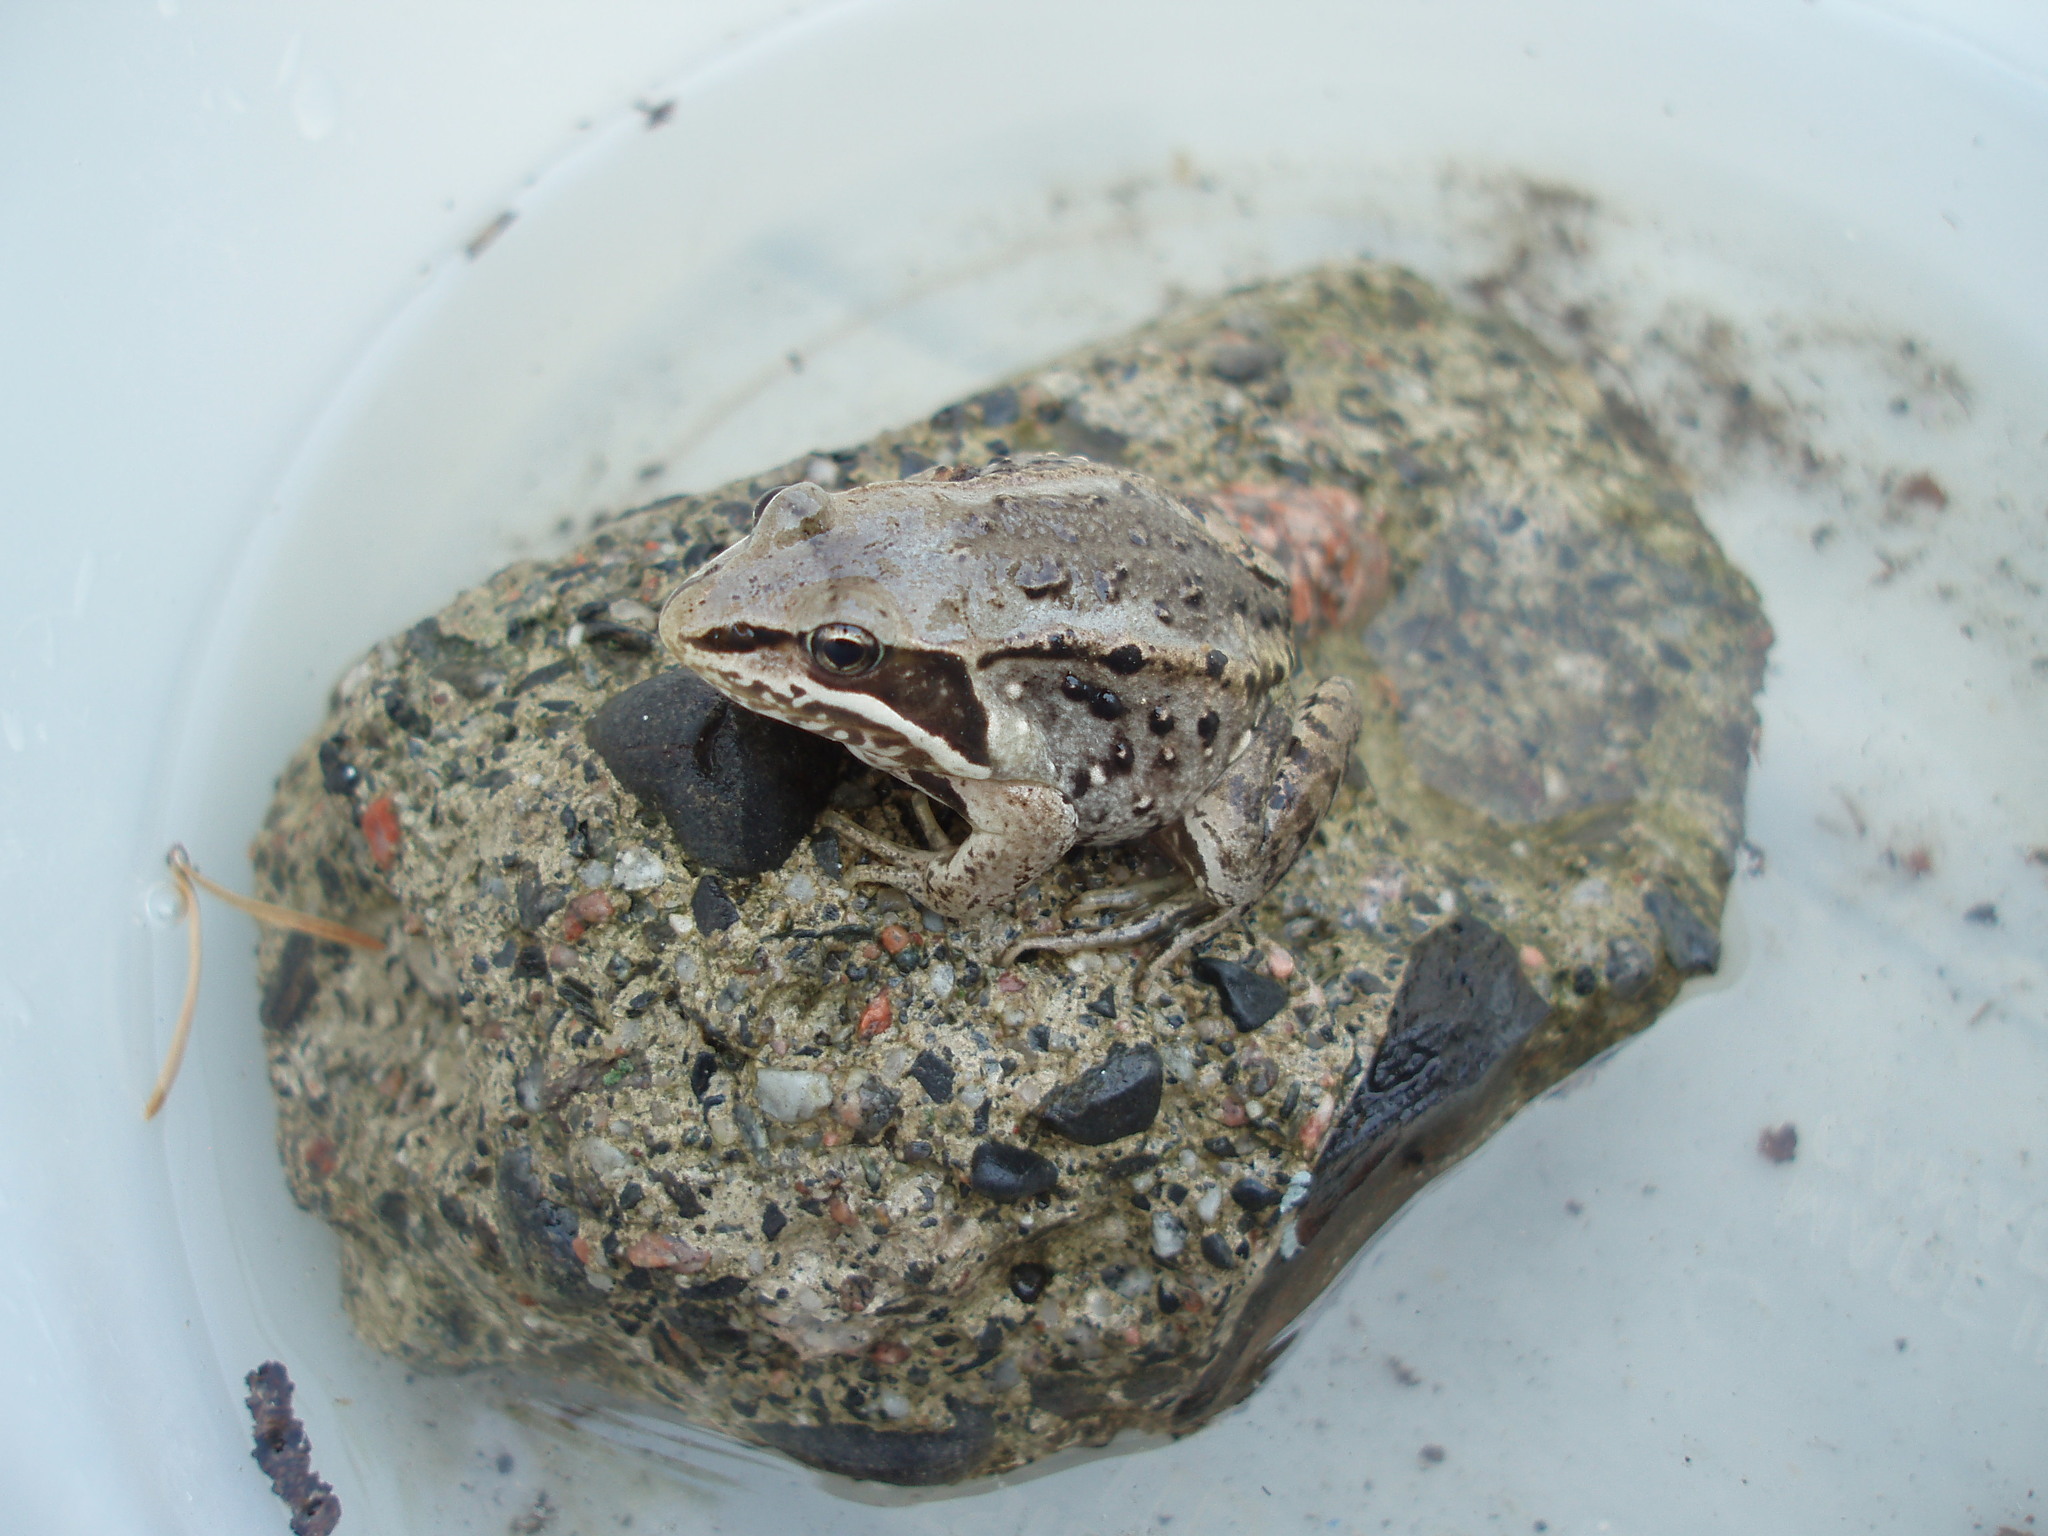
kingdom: Animalia
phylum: Chordata
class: Amphibia
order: Anura
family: Ranidae
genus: Lithobates
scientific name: Lithobates sylvaticus
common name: Wood frog
